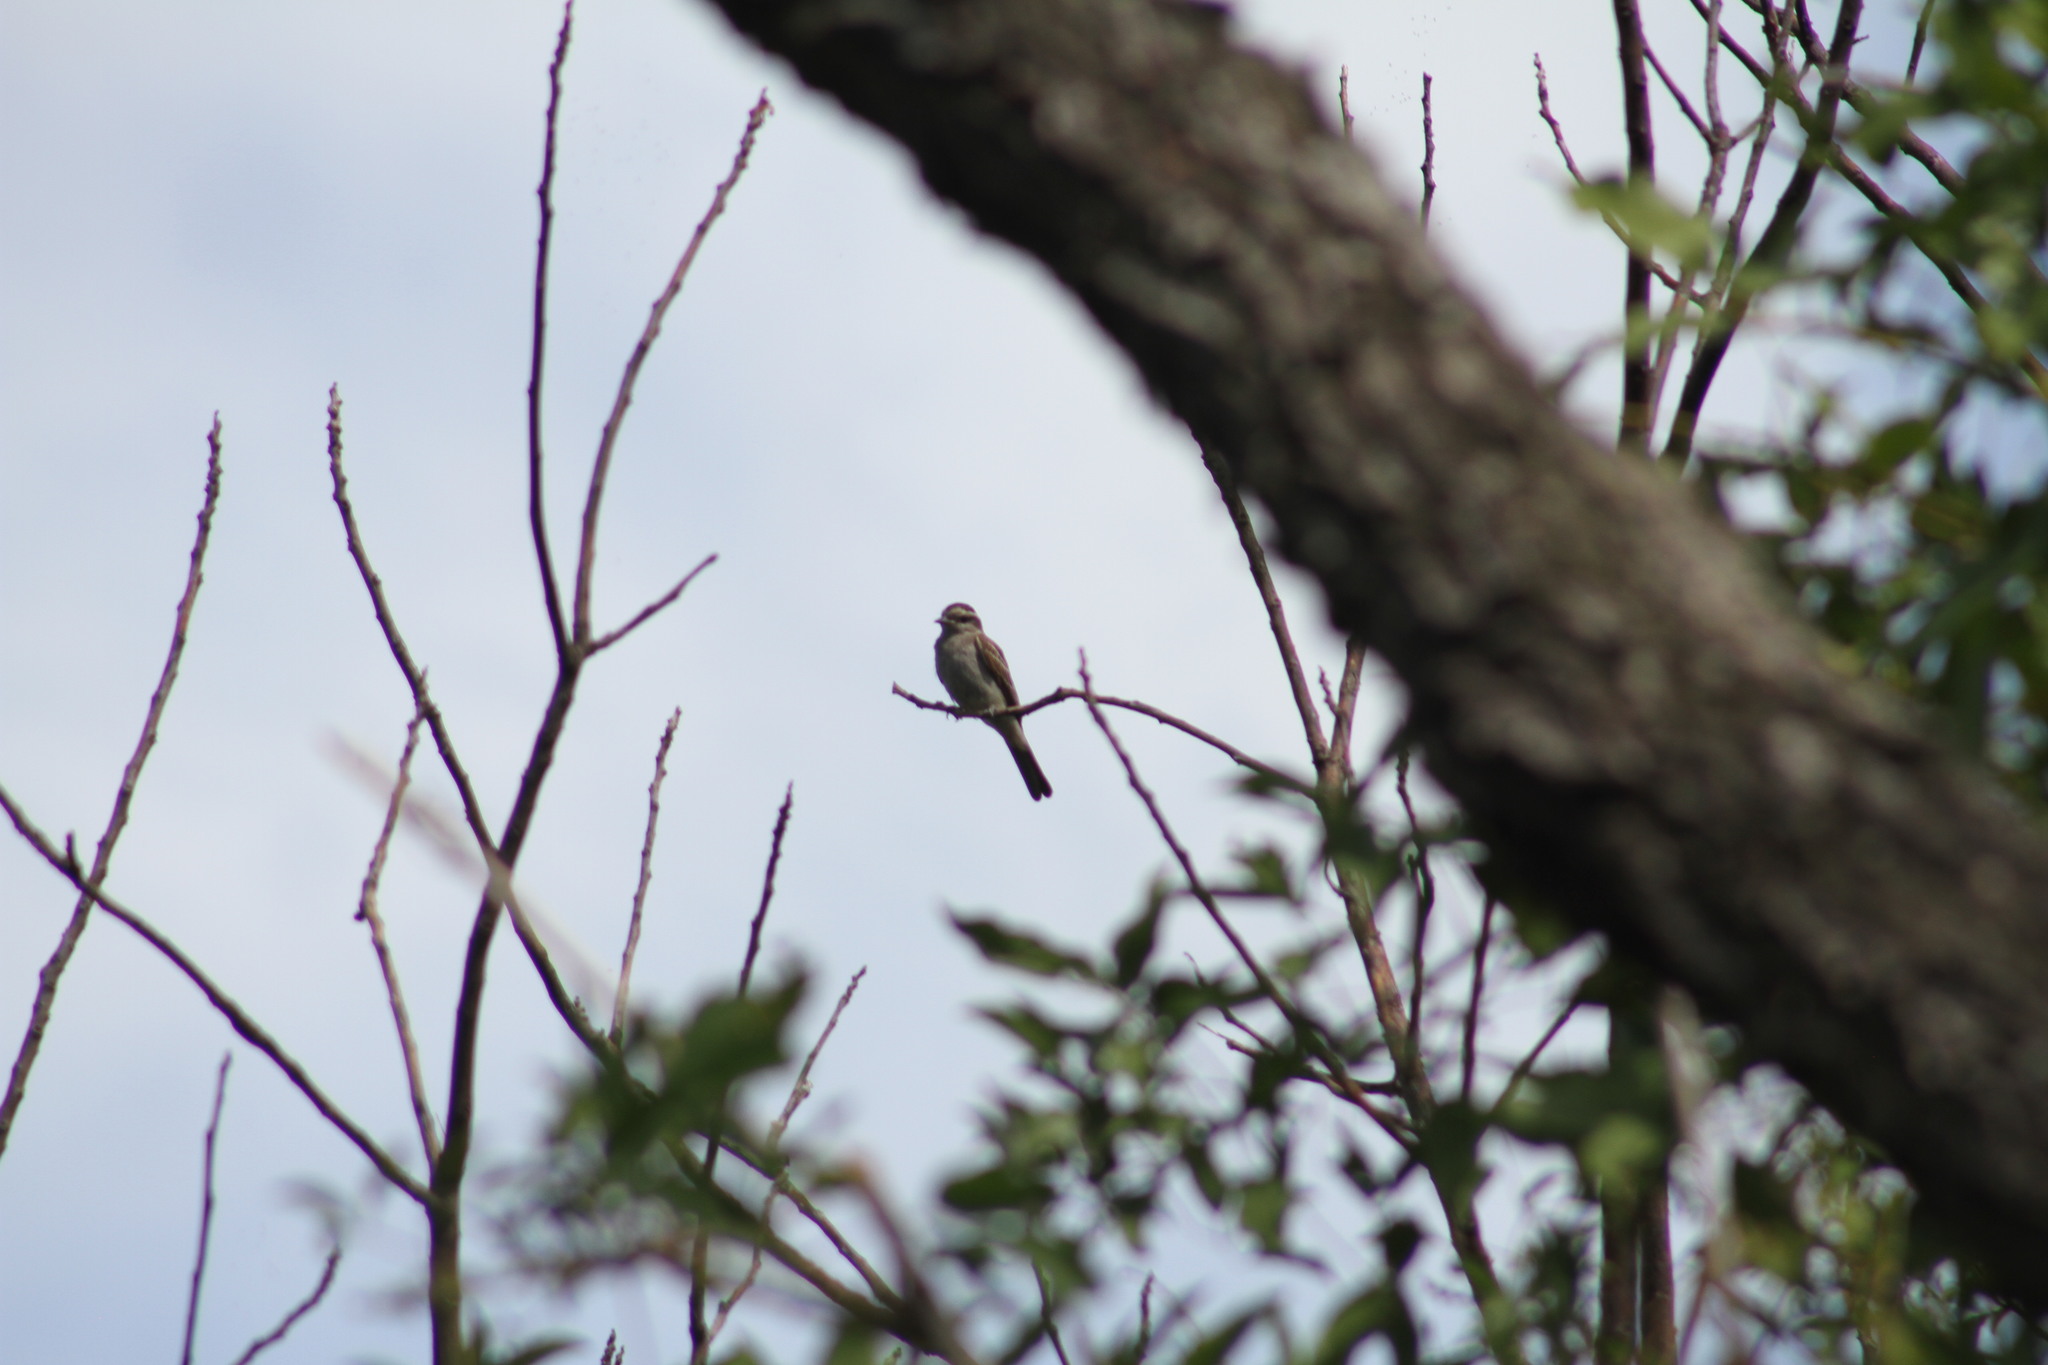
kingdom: Animalia
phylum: Chordata
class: Aves
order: Passeriformes
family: Tyrannidae
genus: Empidonomus
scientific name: Empidonomus aurantioatrocristatus
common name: Crowned slaty flycatcher
